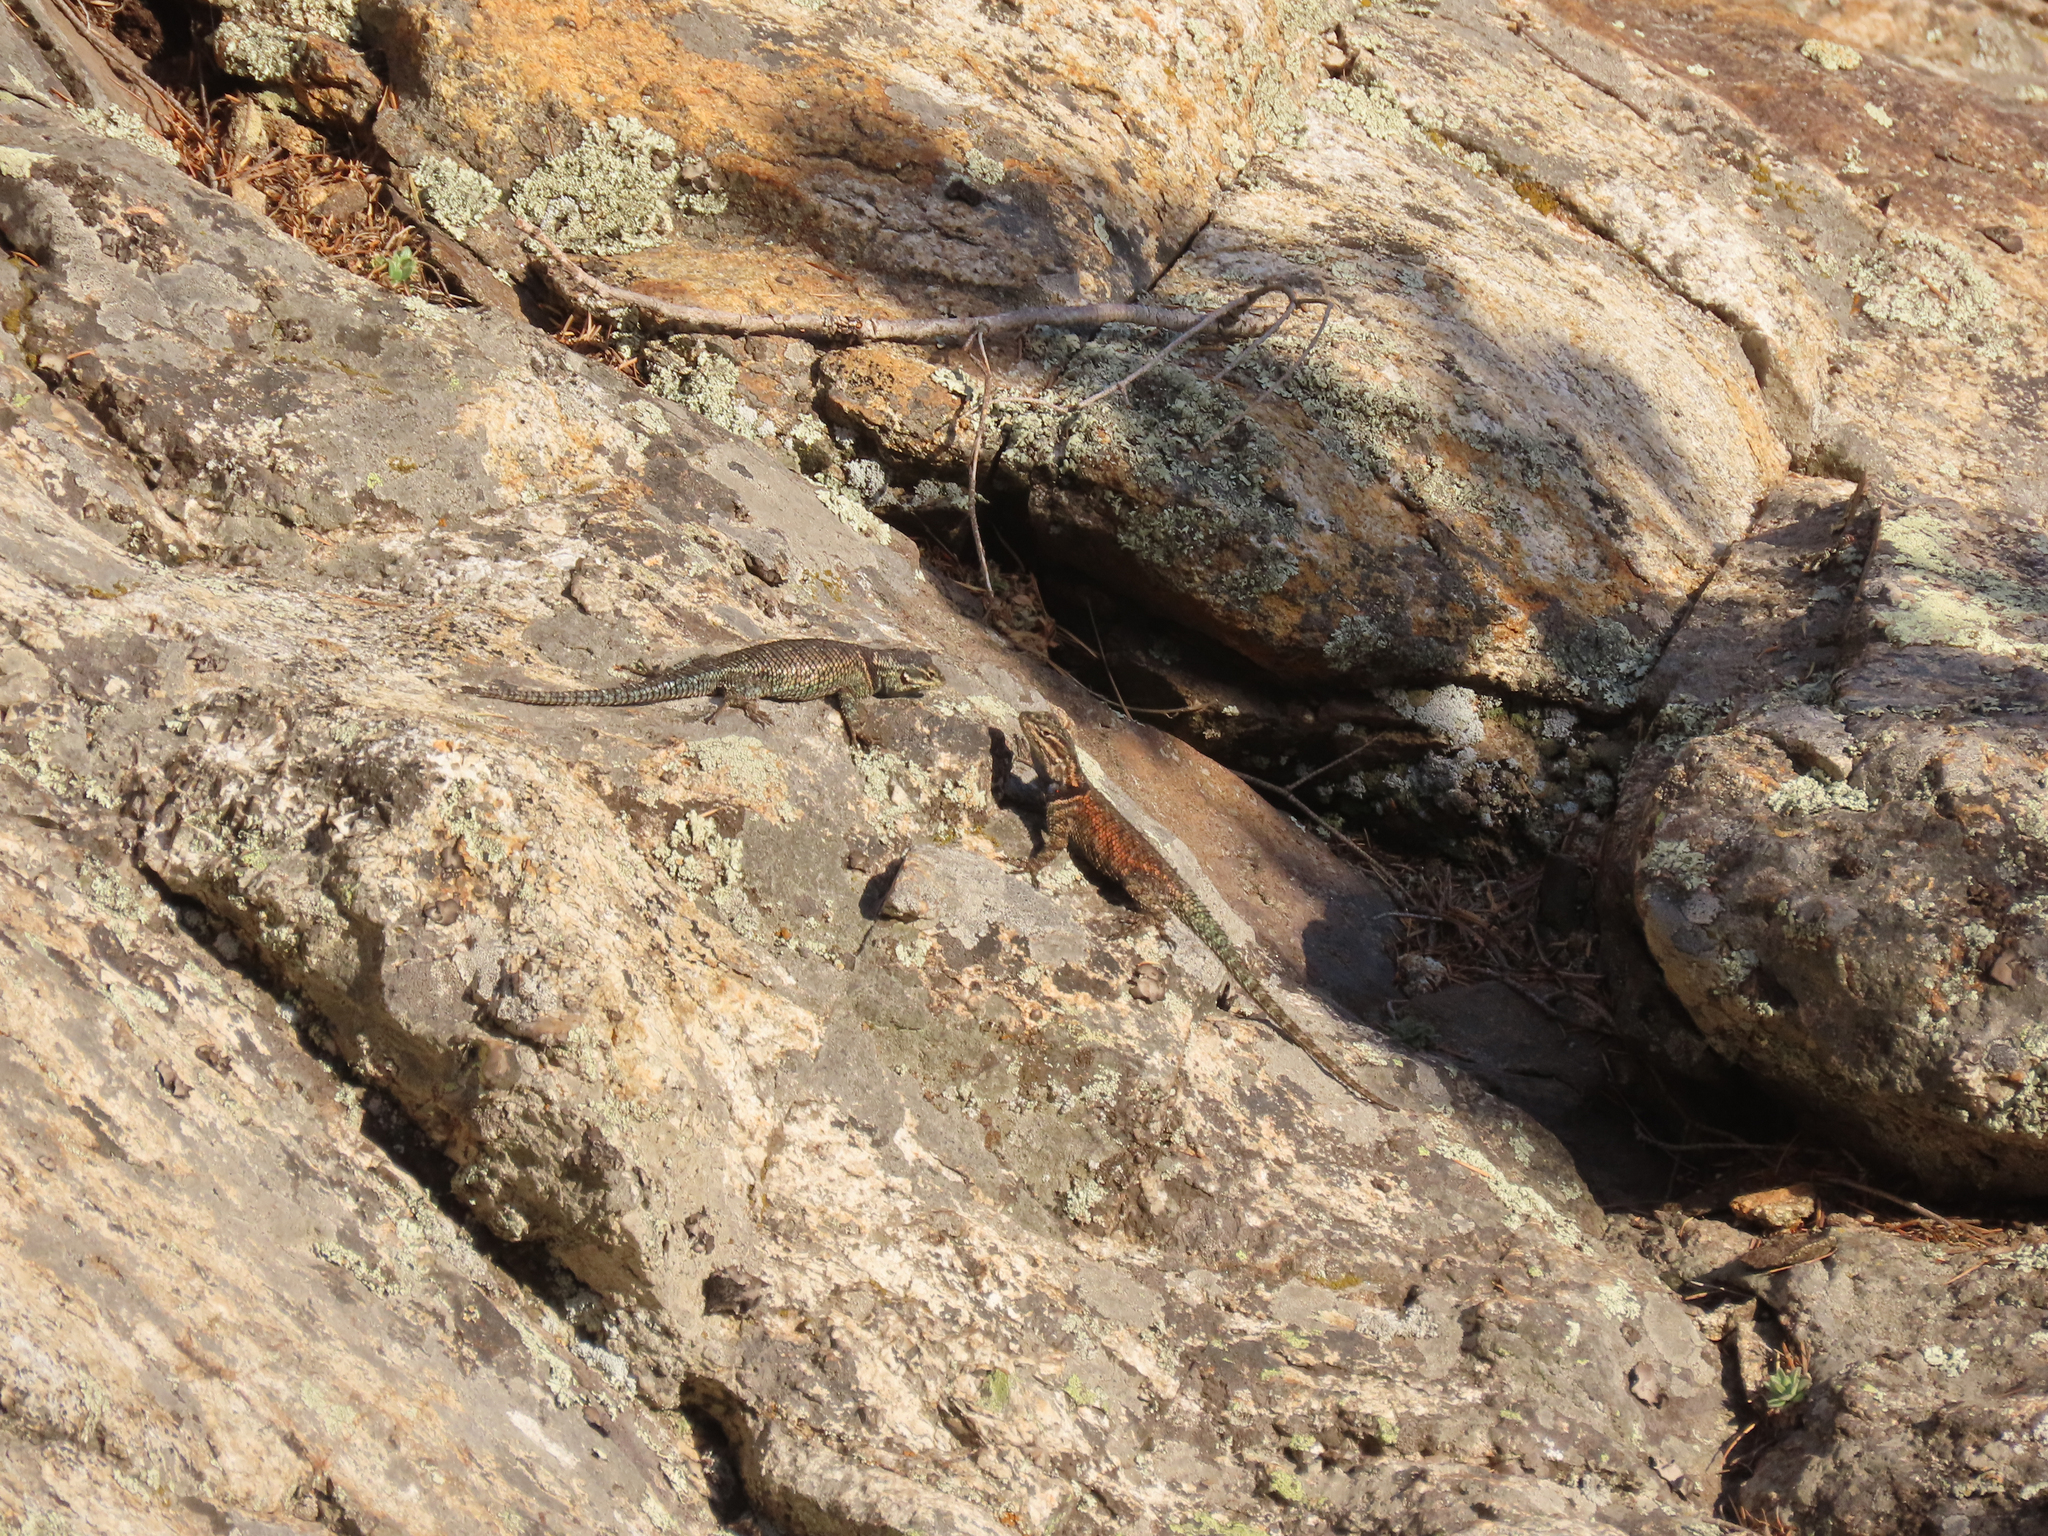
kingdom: Animalia
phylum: Chordata
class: Squamata
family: Phrynosomatidae
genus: Sceloporus
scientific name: Sceloporus jarrovii
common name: Yarrow's spiny lizard
